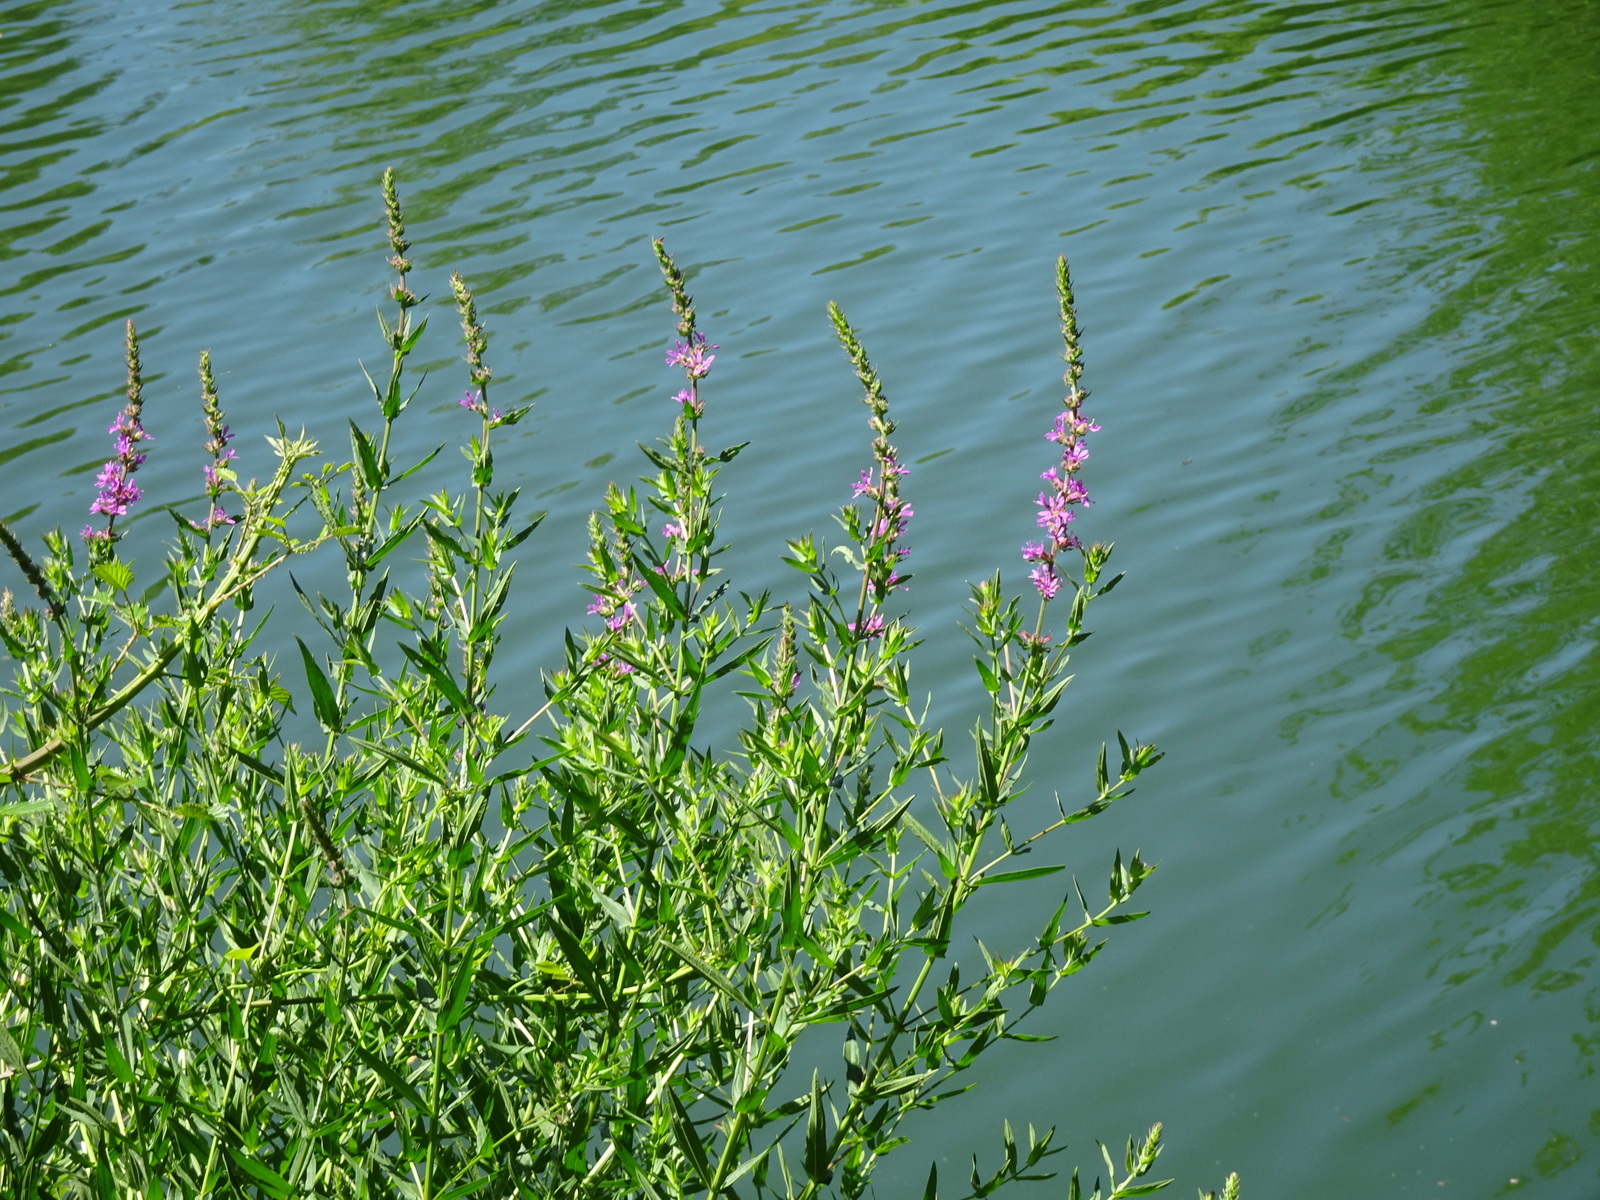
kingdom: Plantae
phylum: Tracheophyta
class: Magnoliopsida
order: Myrtales
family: Lythraceae
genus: Lythrum
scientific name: Lythrum salicaria
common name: Purple loosestrife
